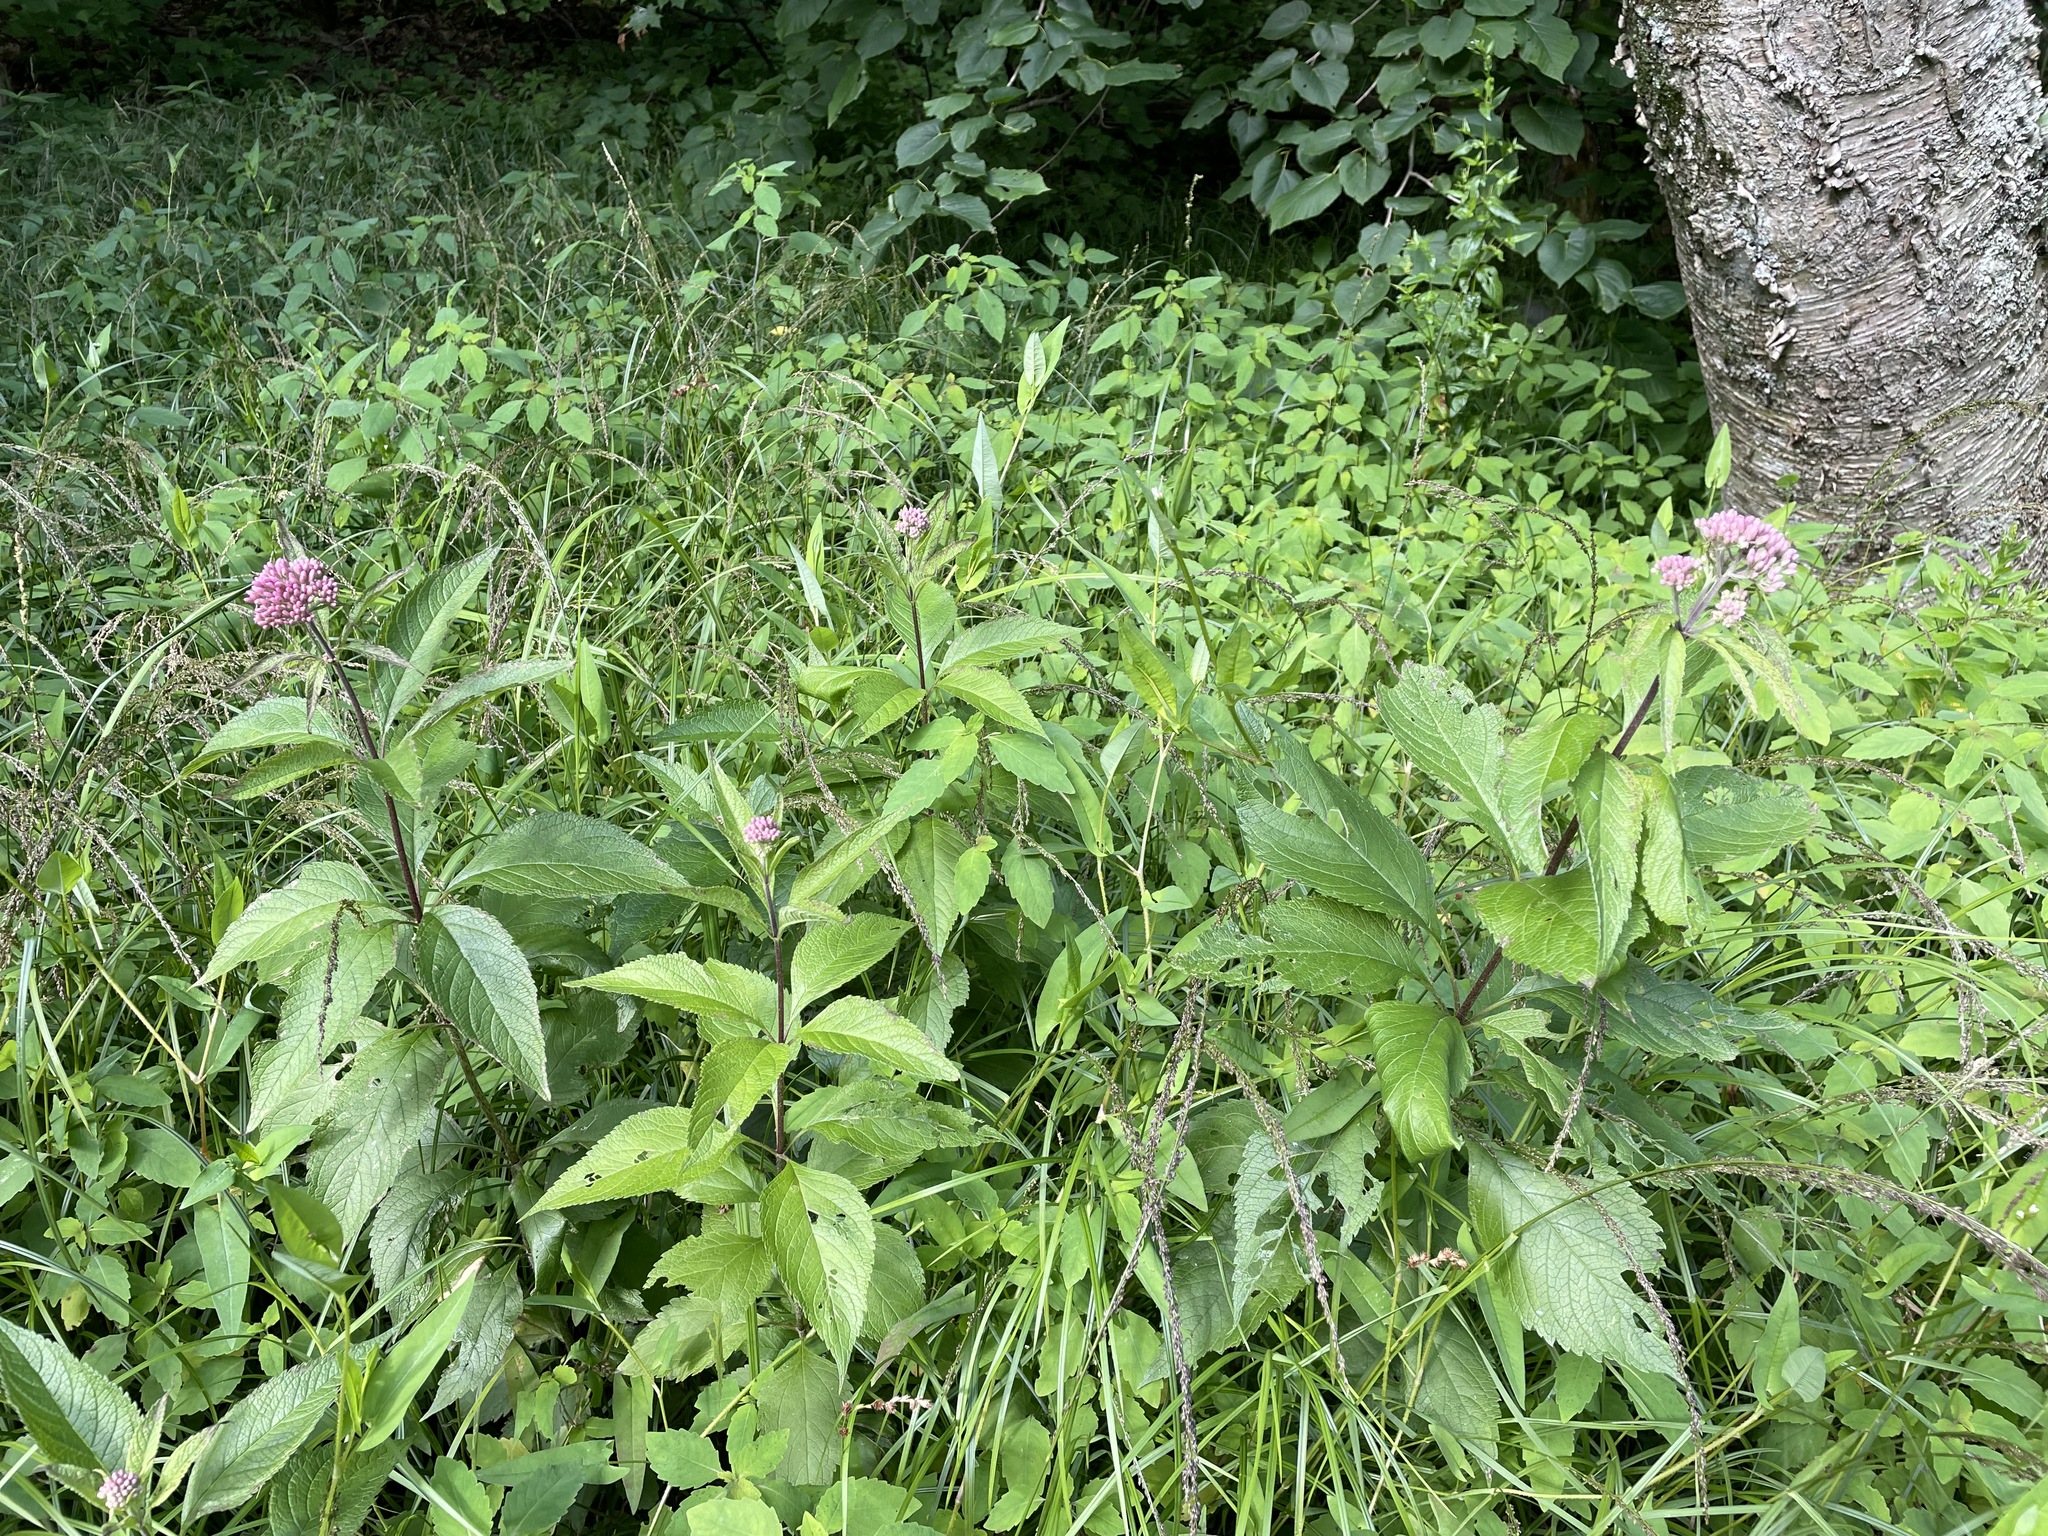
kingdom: Plantae
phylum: Tracheophyta
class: Magnoliopsida
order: Asterales
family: Asteraceae
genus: Eutrochium
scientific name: Eutrochium maculatum
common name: Spotted joe pye weed
